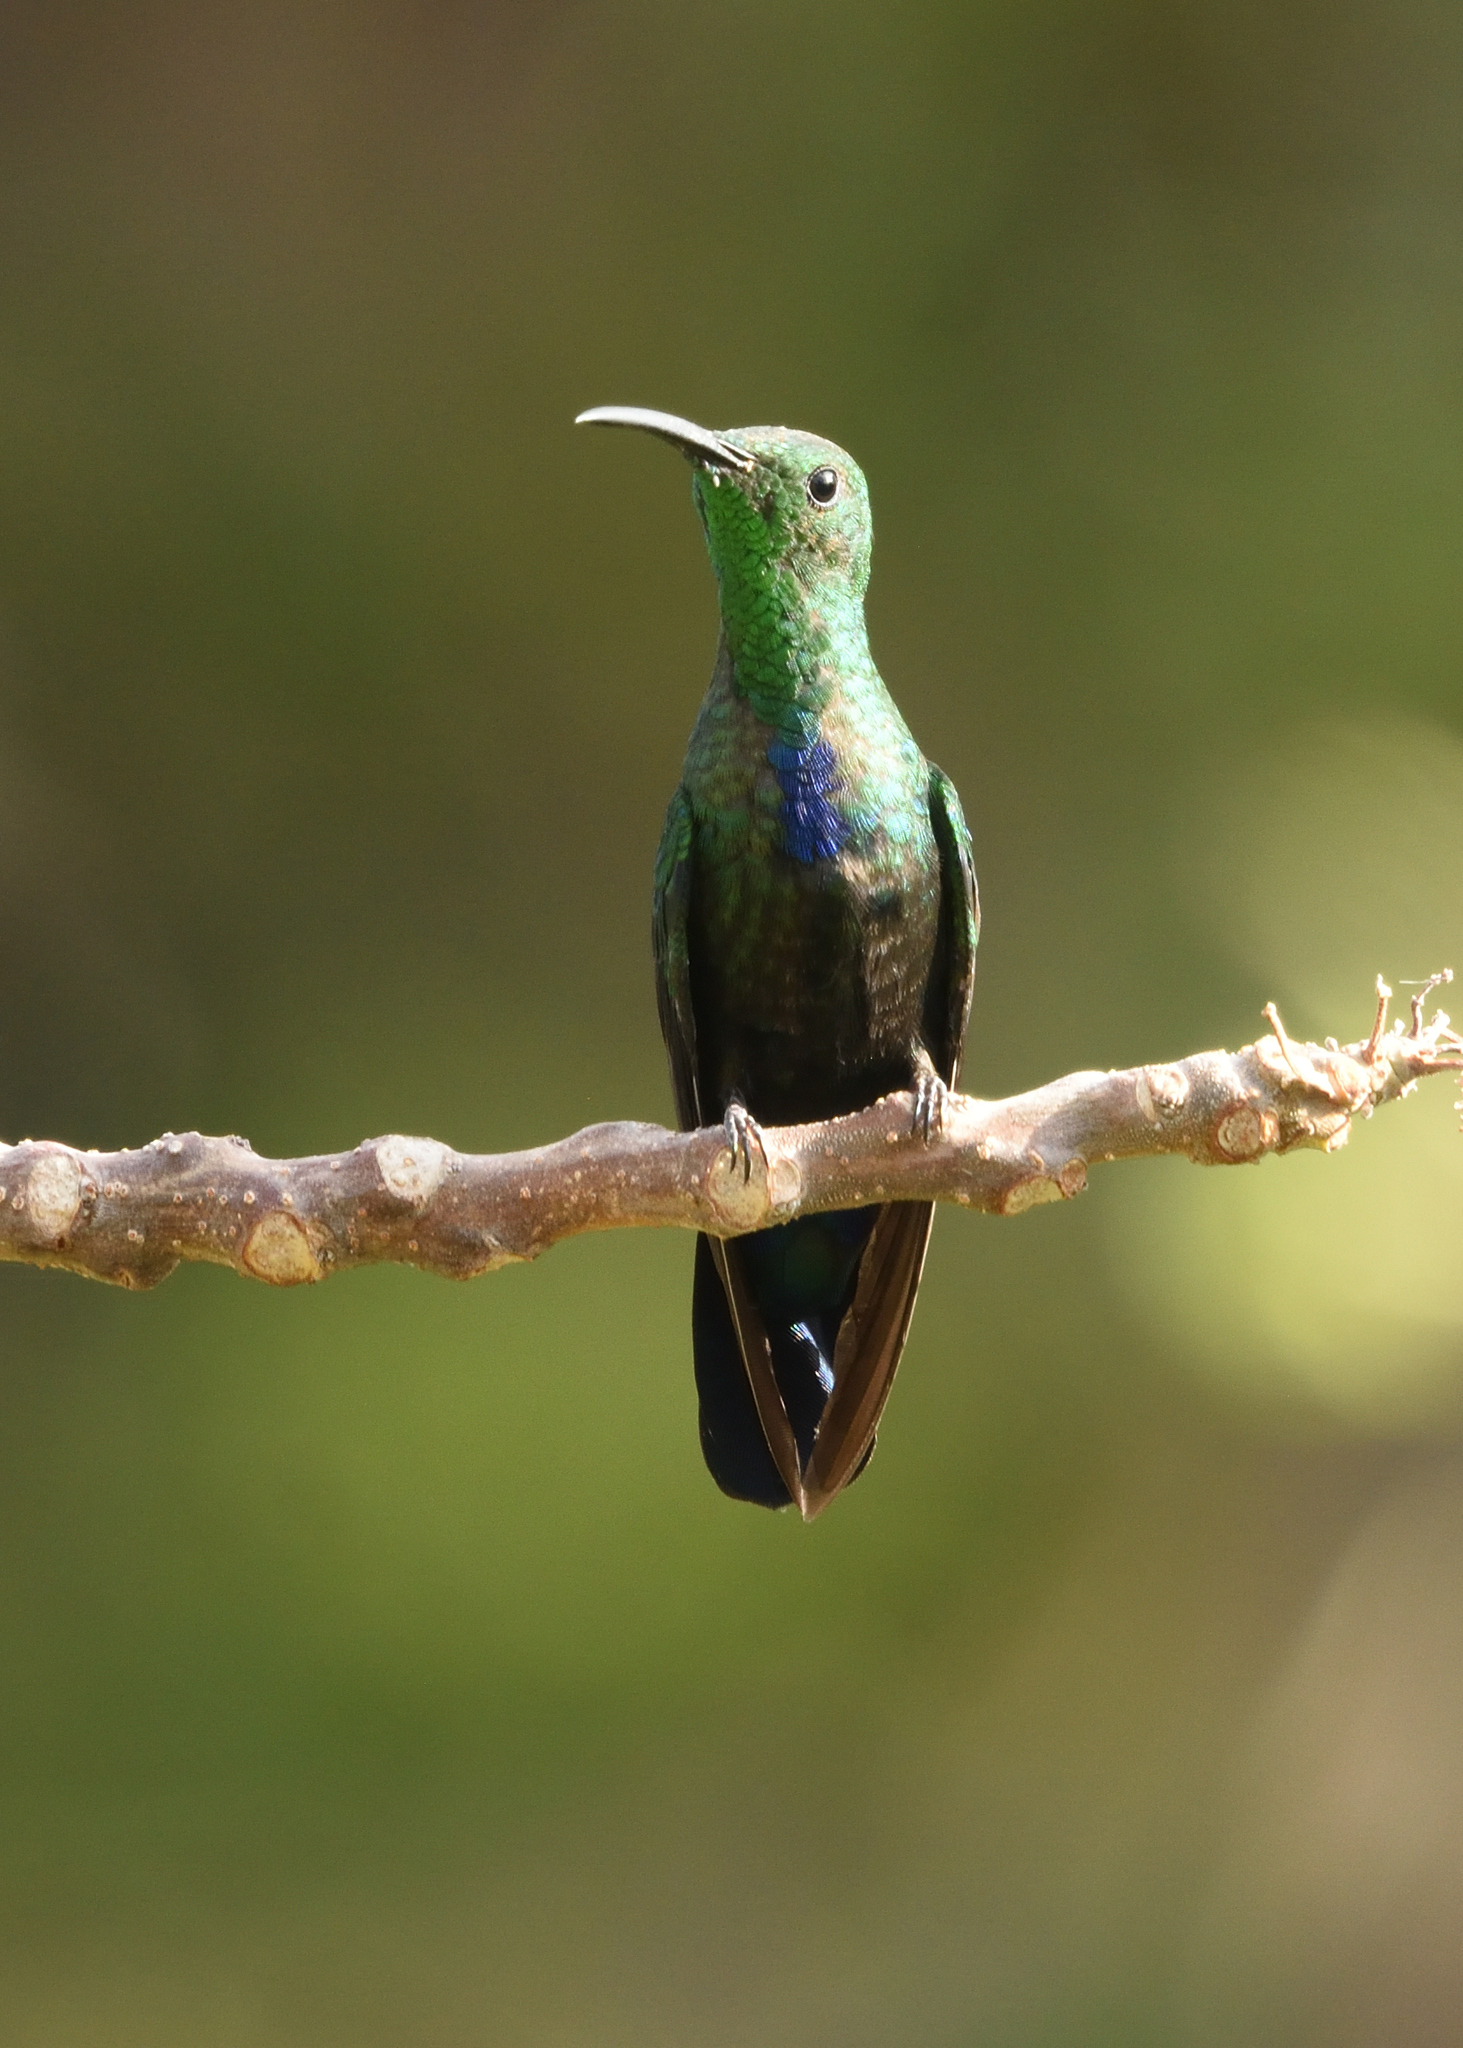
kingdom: Animalia
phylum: Chordata
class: Aves
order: Apodiformes
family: Trochilidae
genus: Eulampis
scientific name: Eulampis holosericeus
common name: Green-throated carib
